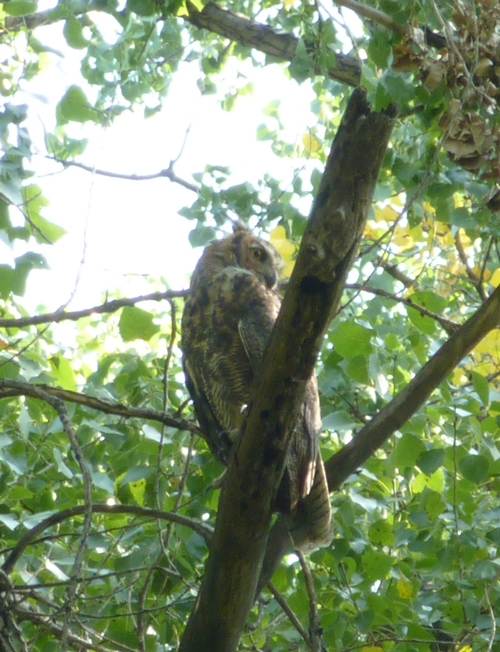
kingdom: Animalia
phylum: Chordata
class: Aves
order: Strigiformes
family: Strigidae
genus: Bubo
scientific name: Bubo virginianus
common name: Great horned owl
